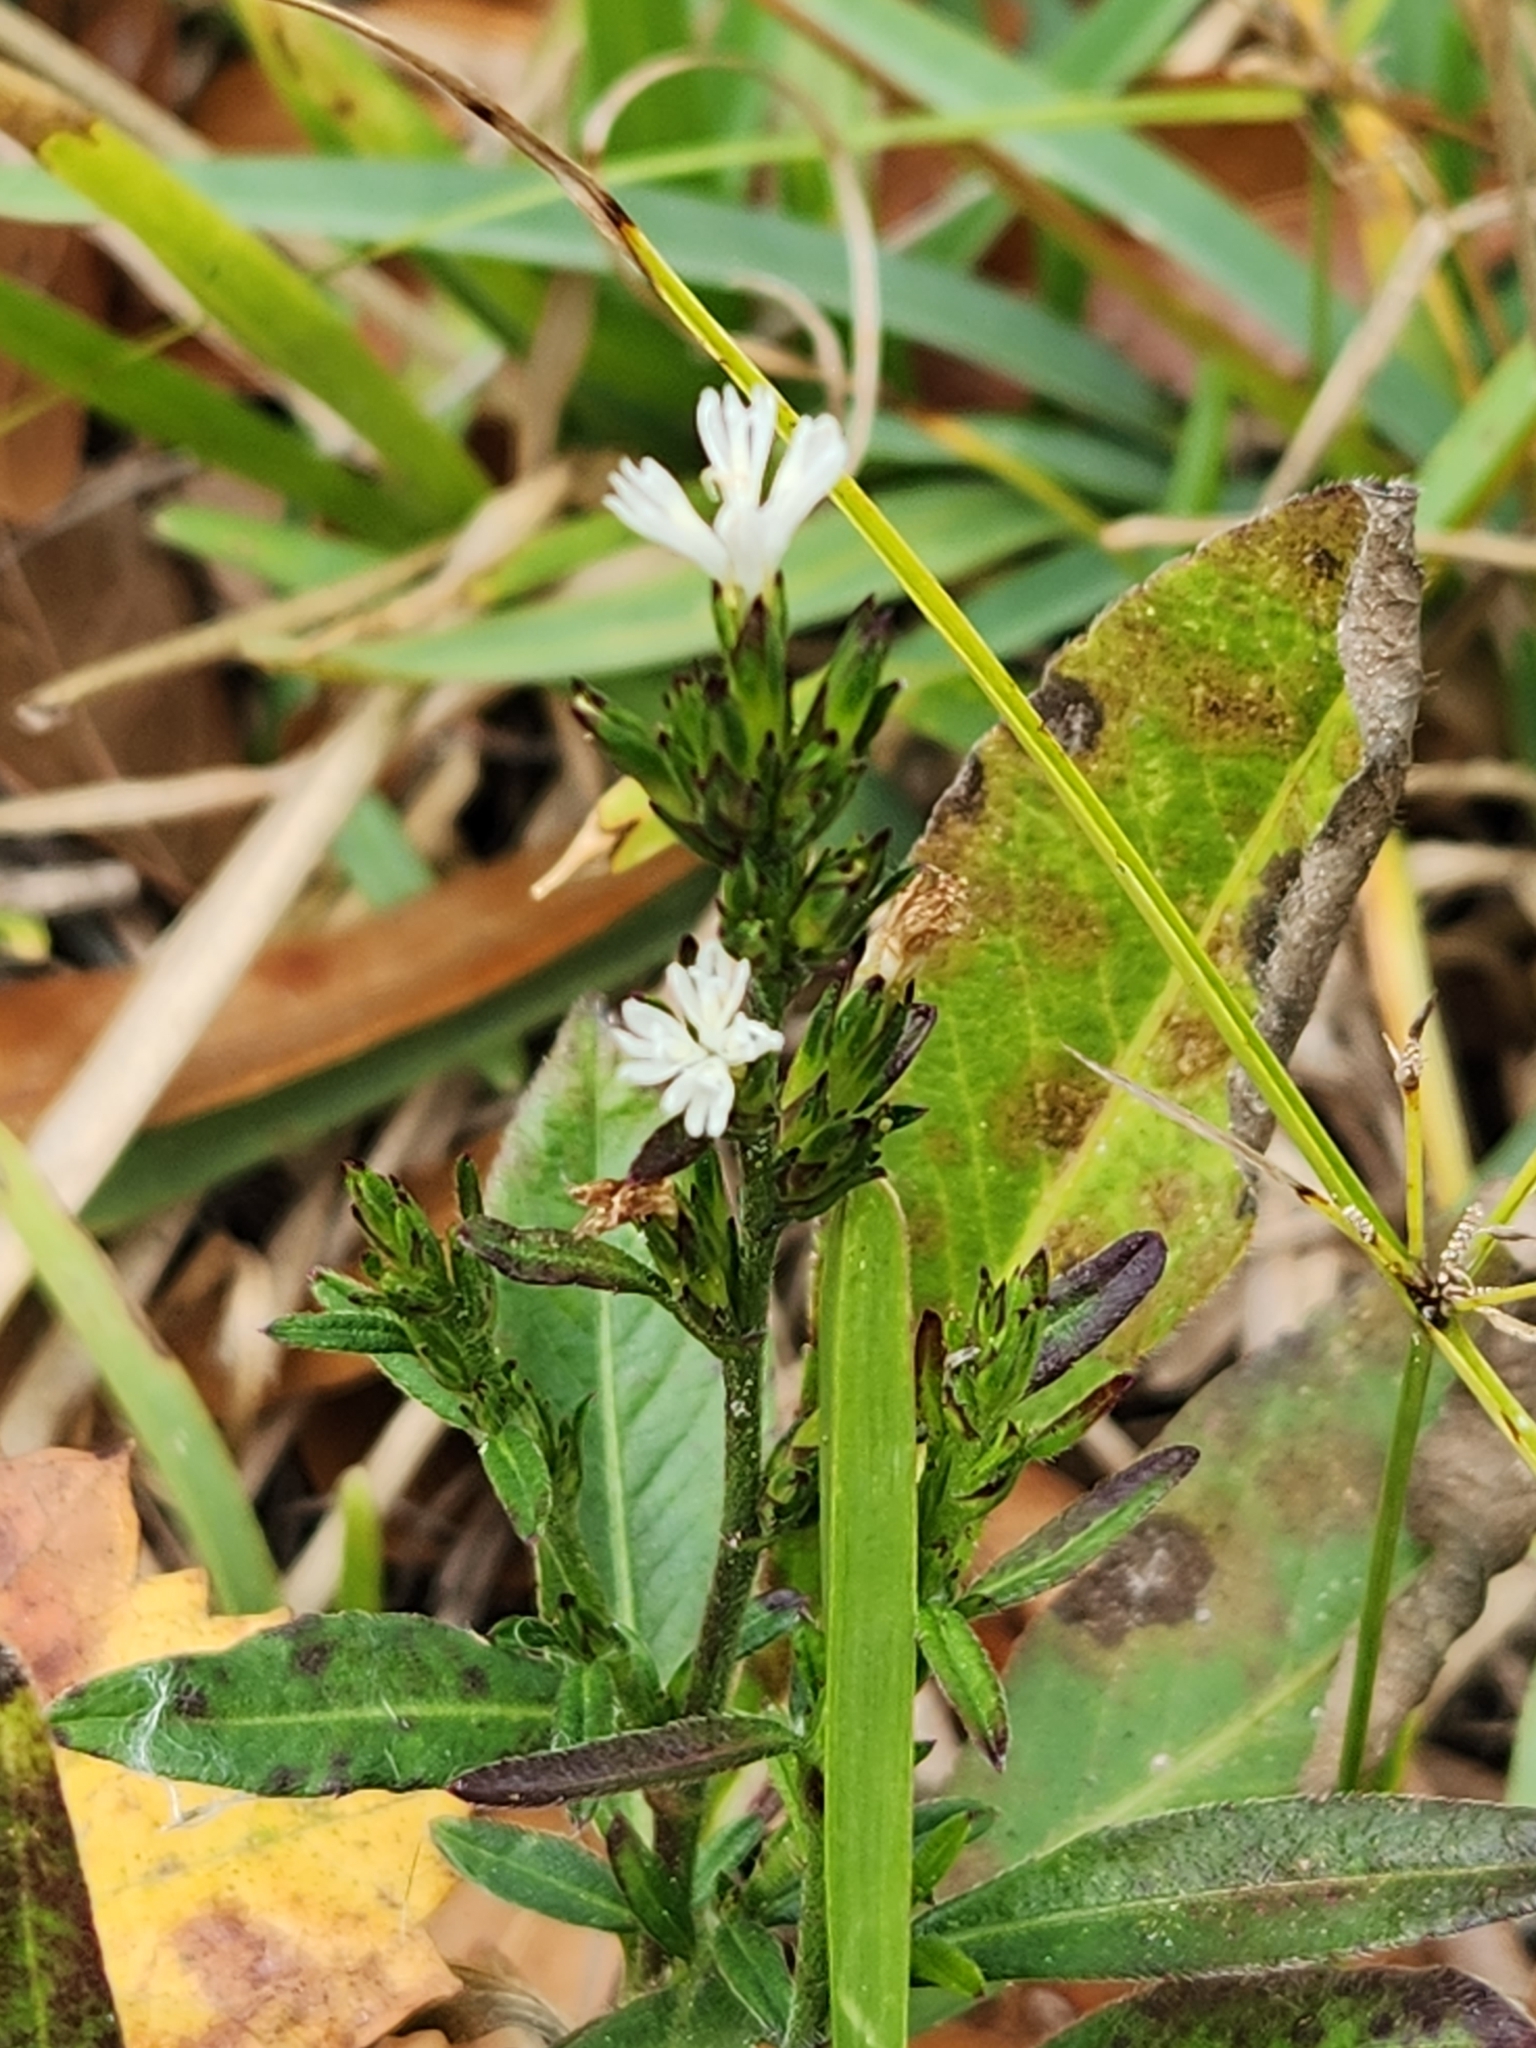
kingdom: Plantae
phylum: Tracheophyta
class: Magnoliopsida
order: Asterales
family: Asteraceae
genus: Pseudelephantopus
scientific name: Pseudelephantopus spicatus
